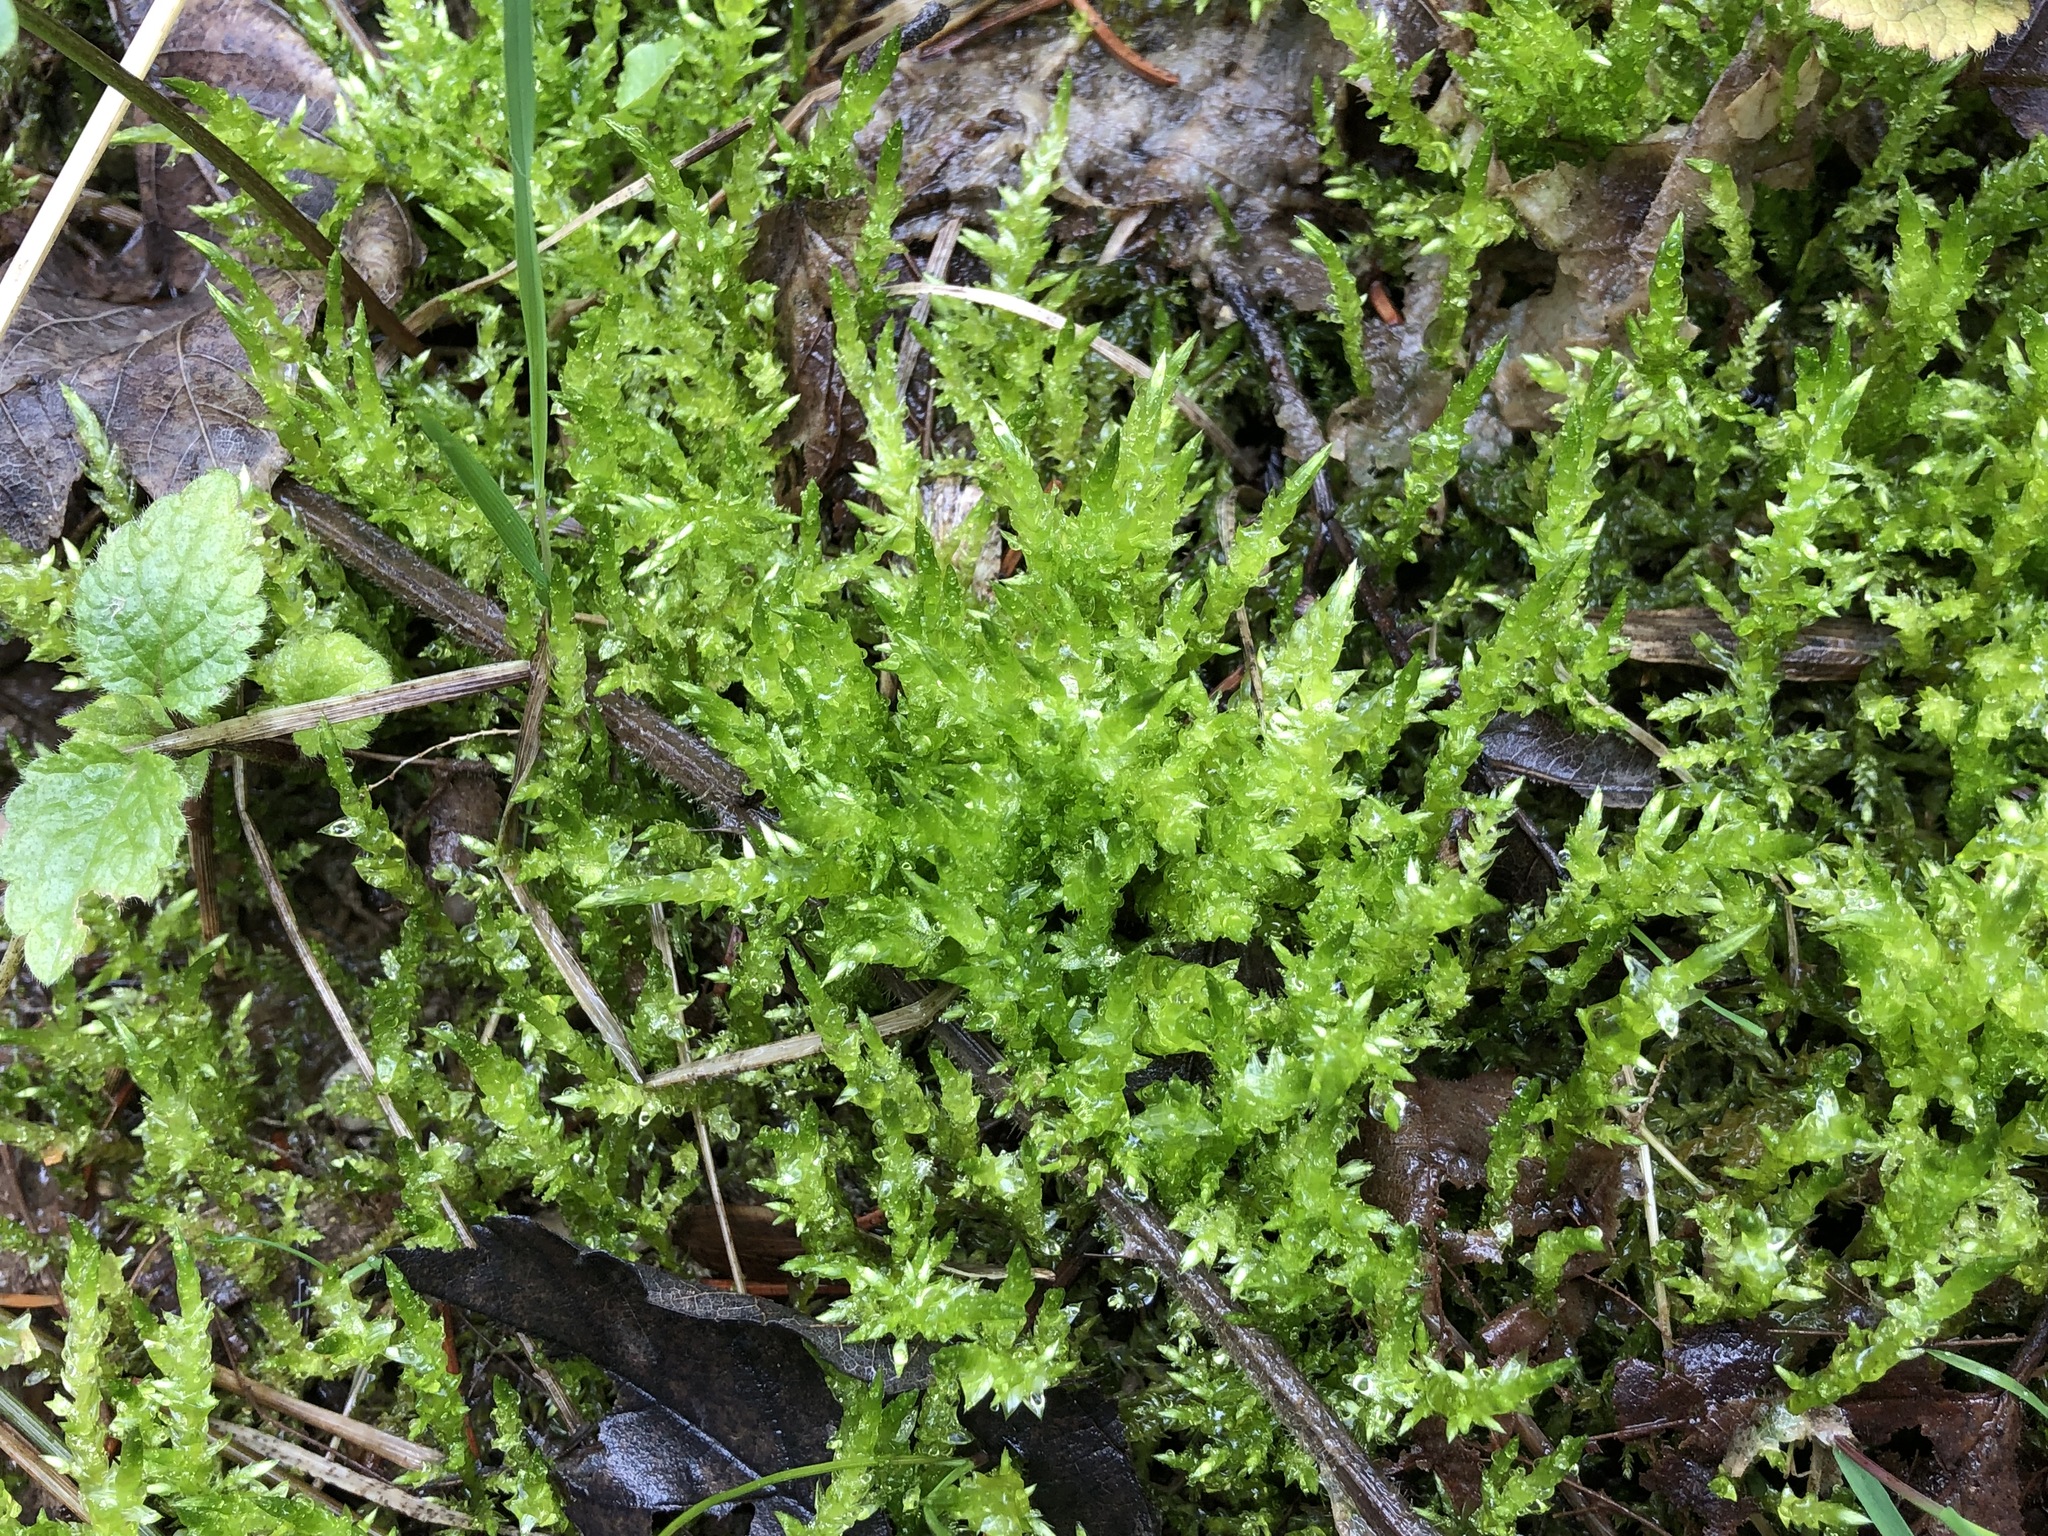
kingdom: Plantae
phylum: Bryophyta
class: Bryopsida
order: Hypnales
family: Pylaisiaceae
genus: Calliergonella
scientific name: Calliergonella cuspidata
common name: Common large wetland moss
